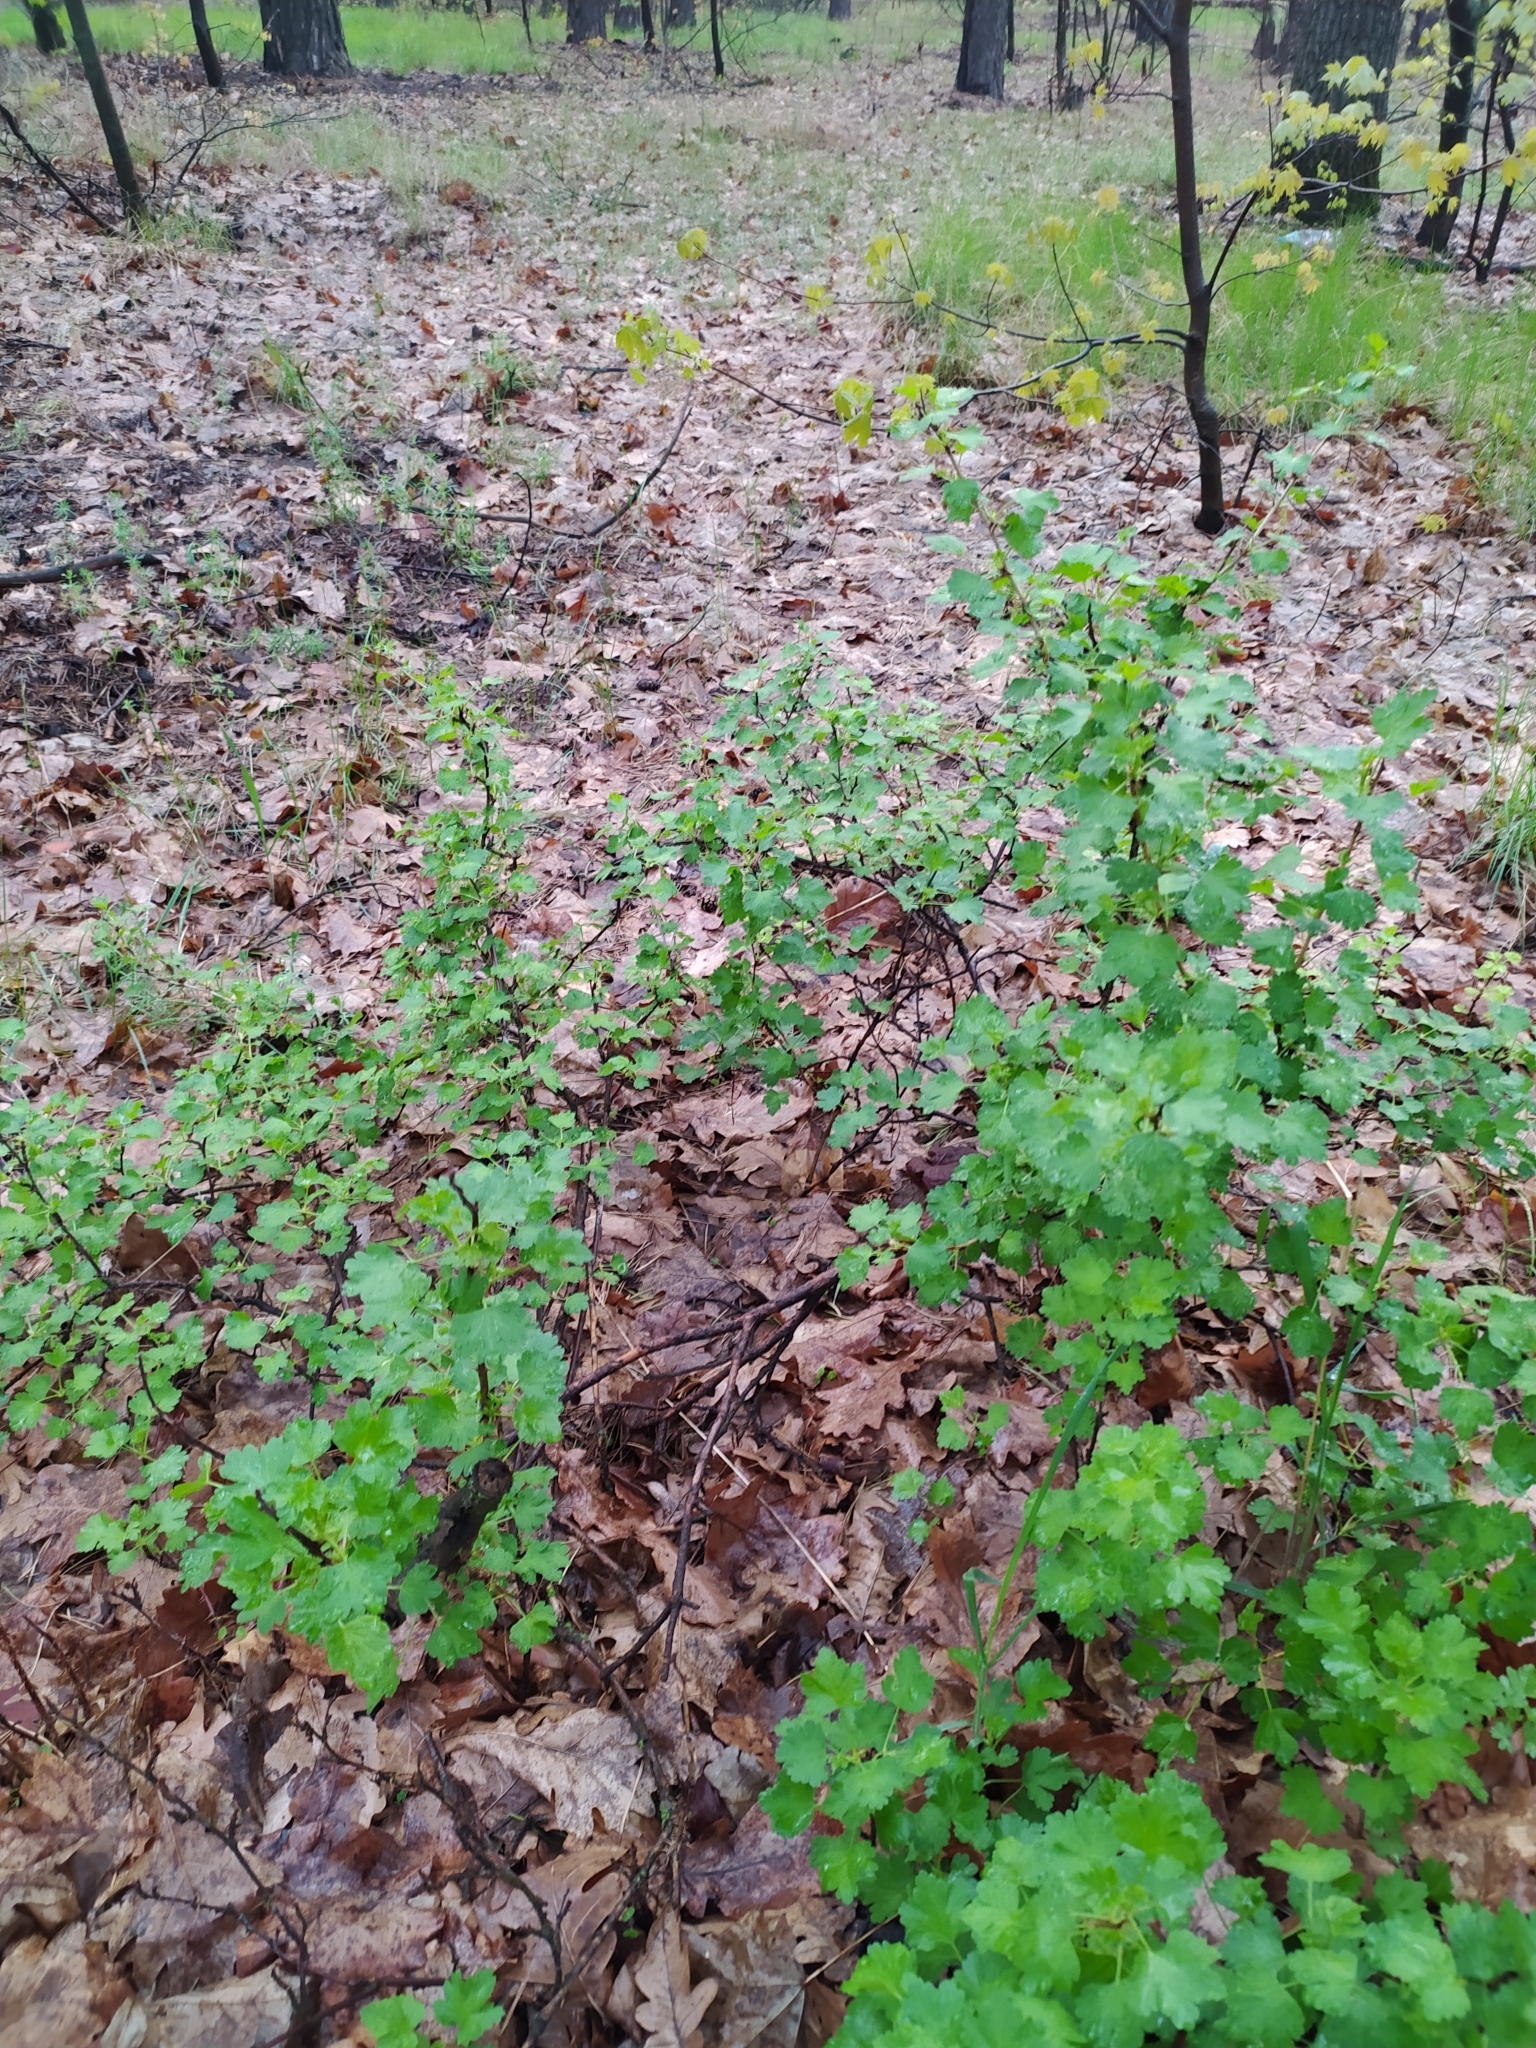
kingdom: Plantae
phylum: Tracheophyta
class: Magnoliopsida
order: Saxifragales
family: Grossulariaceae
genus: Ribes
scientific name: Ribes uva-crispa
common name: Gooseberry
